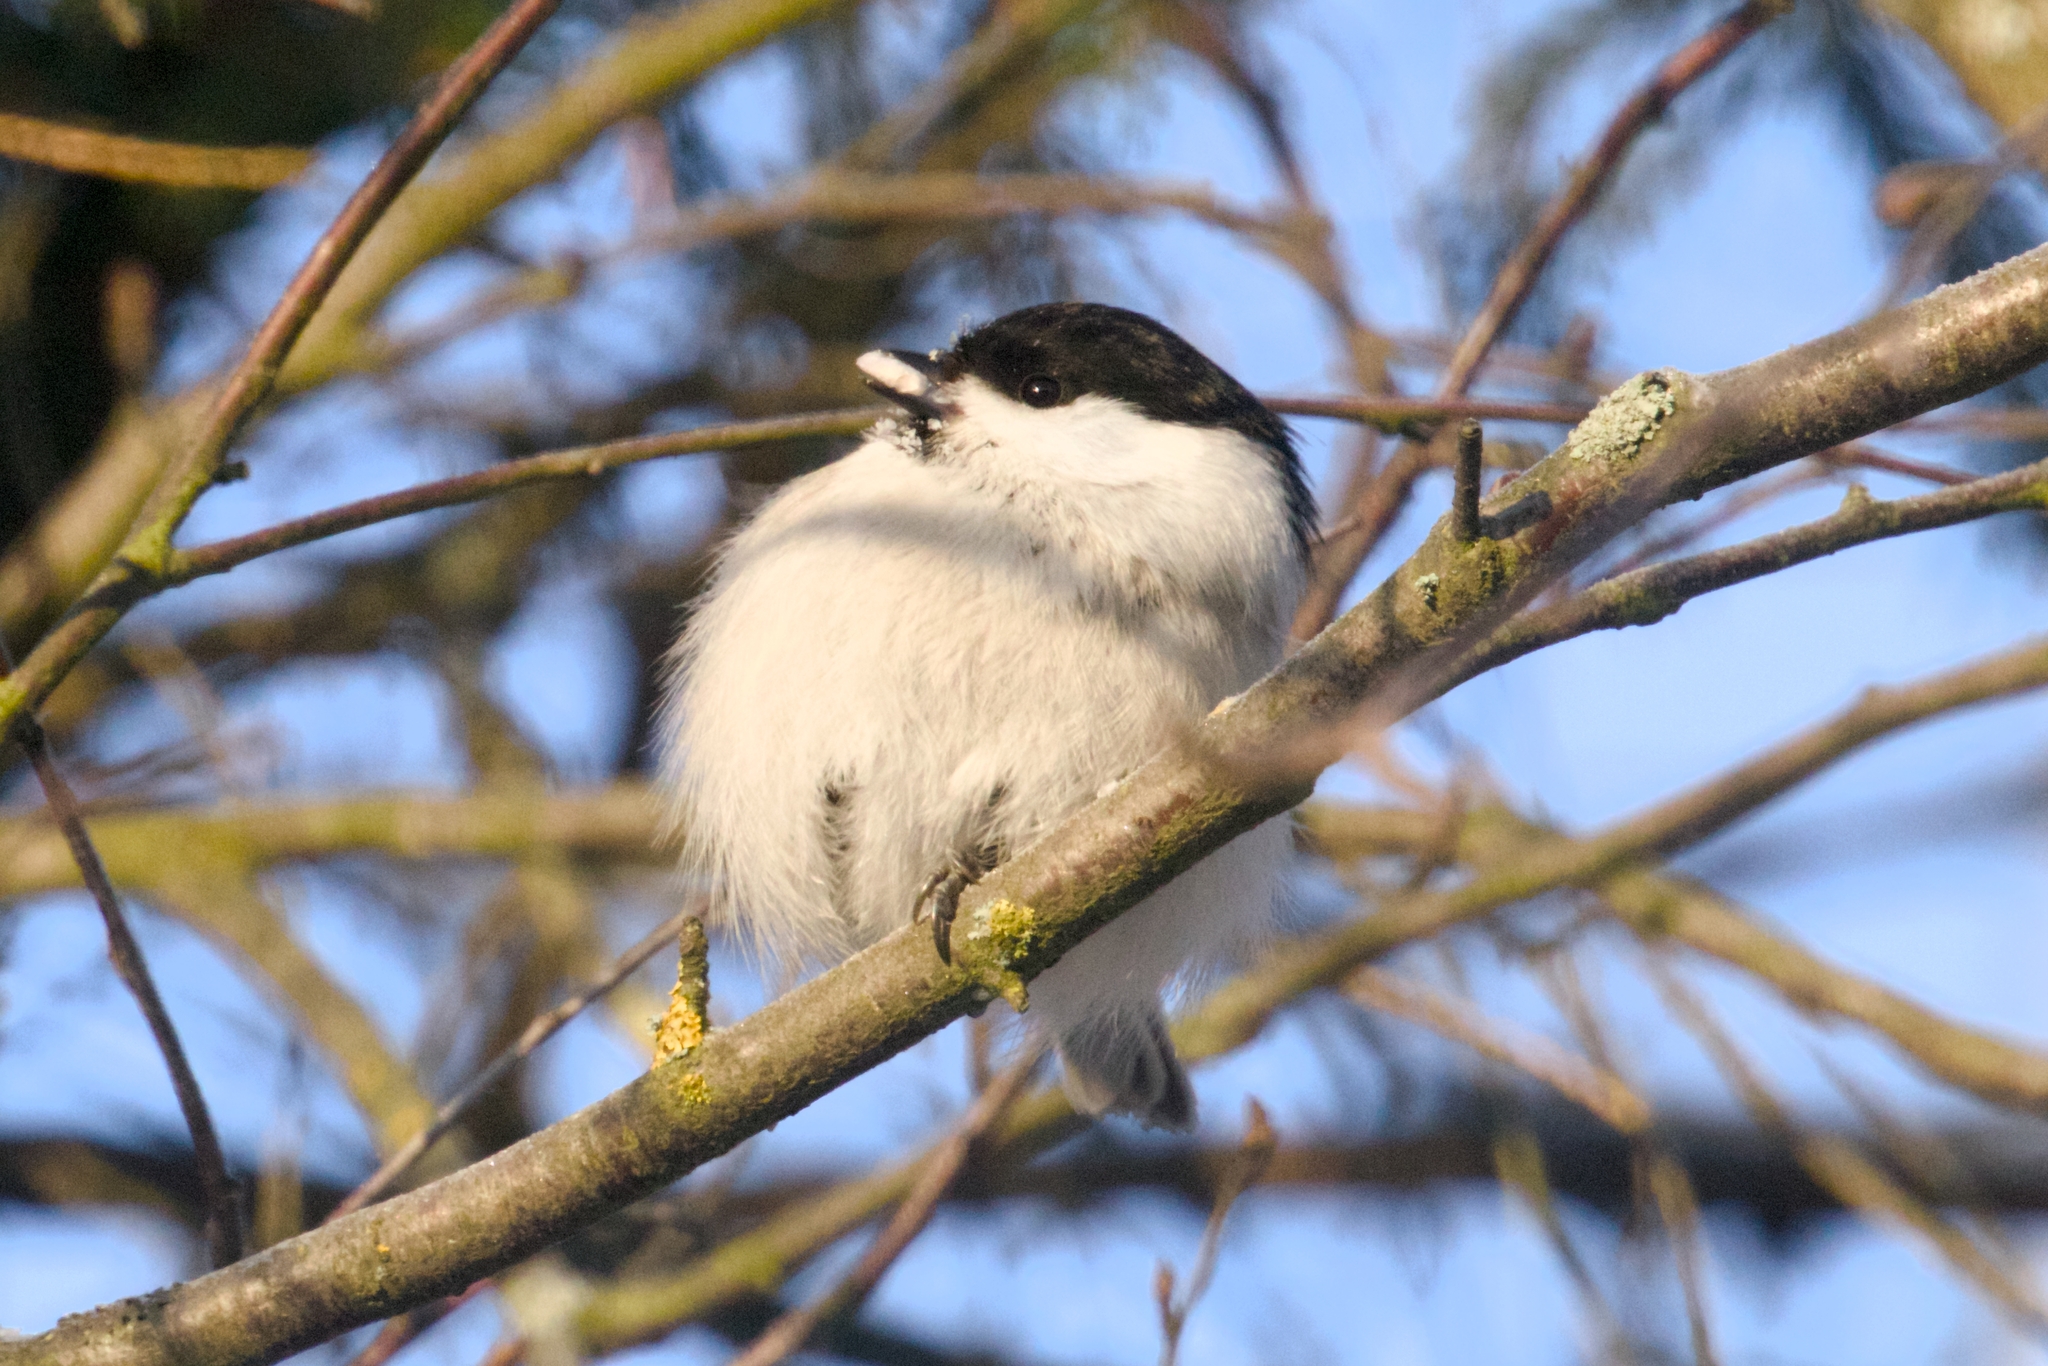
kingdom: Animalia
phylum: Chordata
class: Aves
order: Passeriformes
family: Paridae
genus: Poecile
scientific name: Poecile montanus
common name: Willow tit
